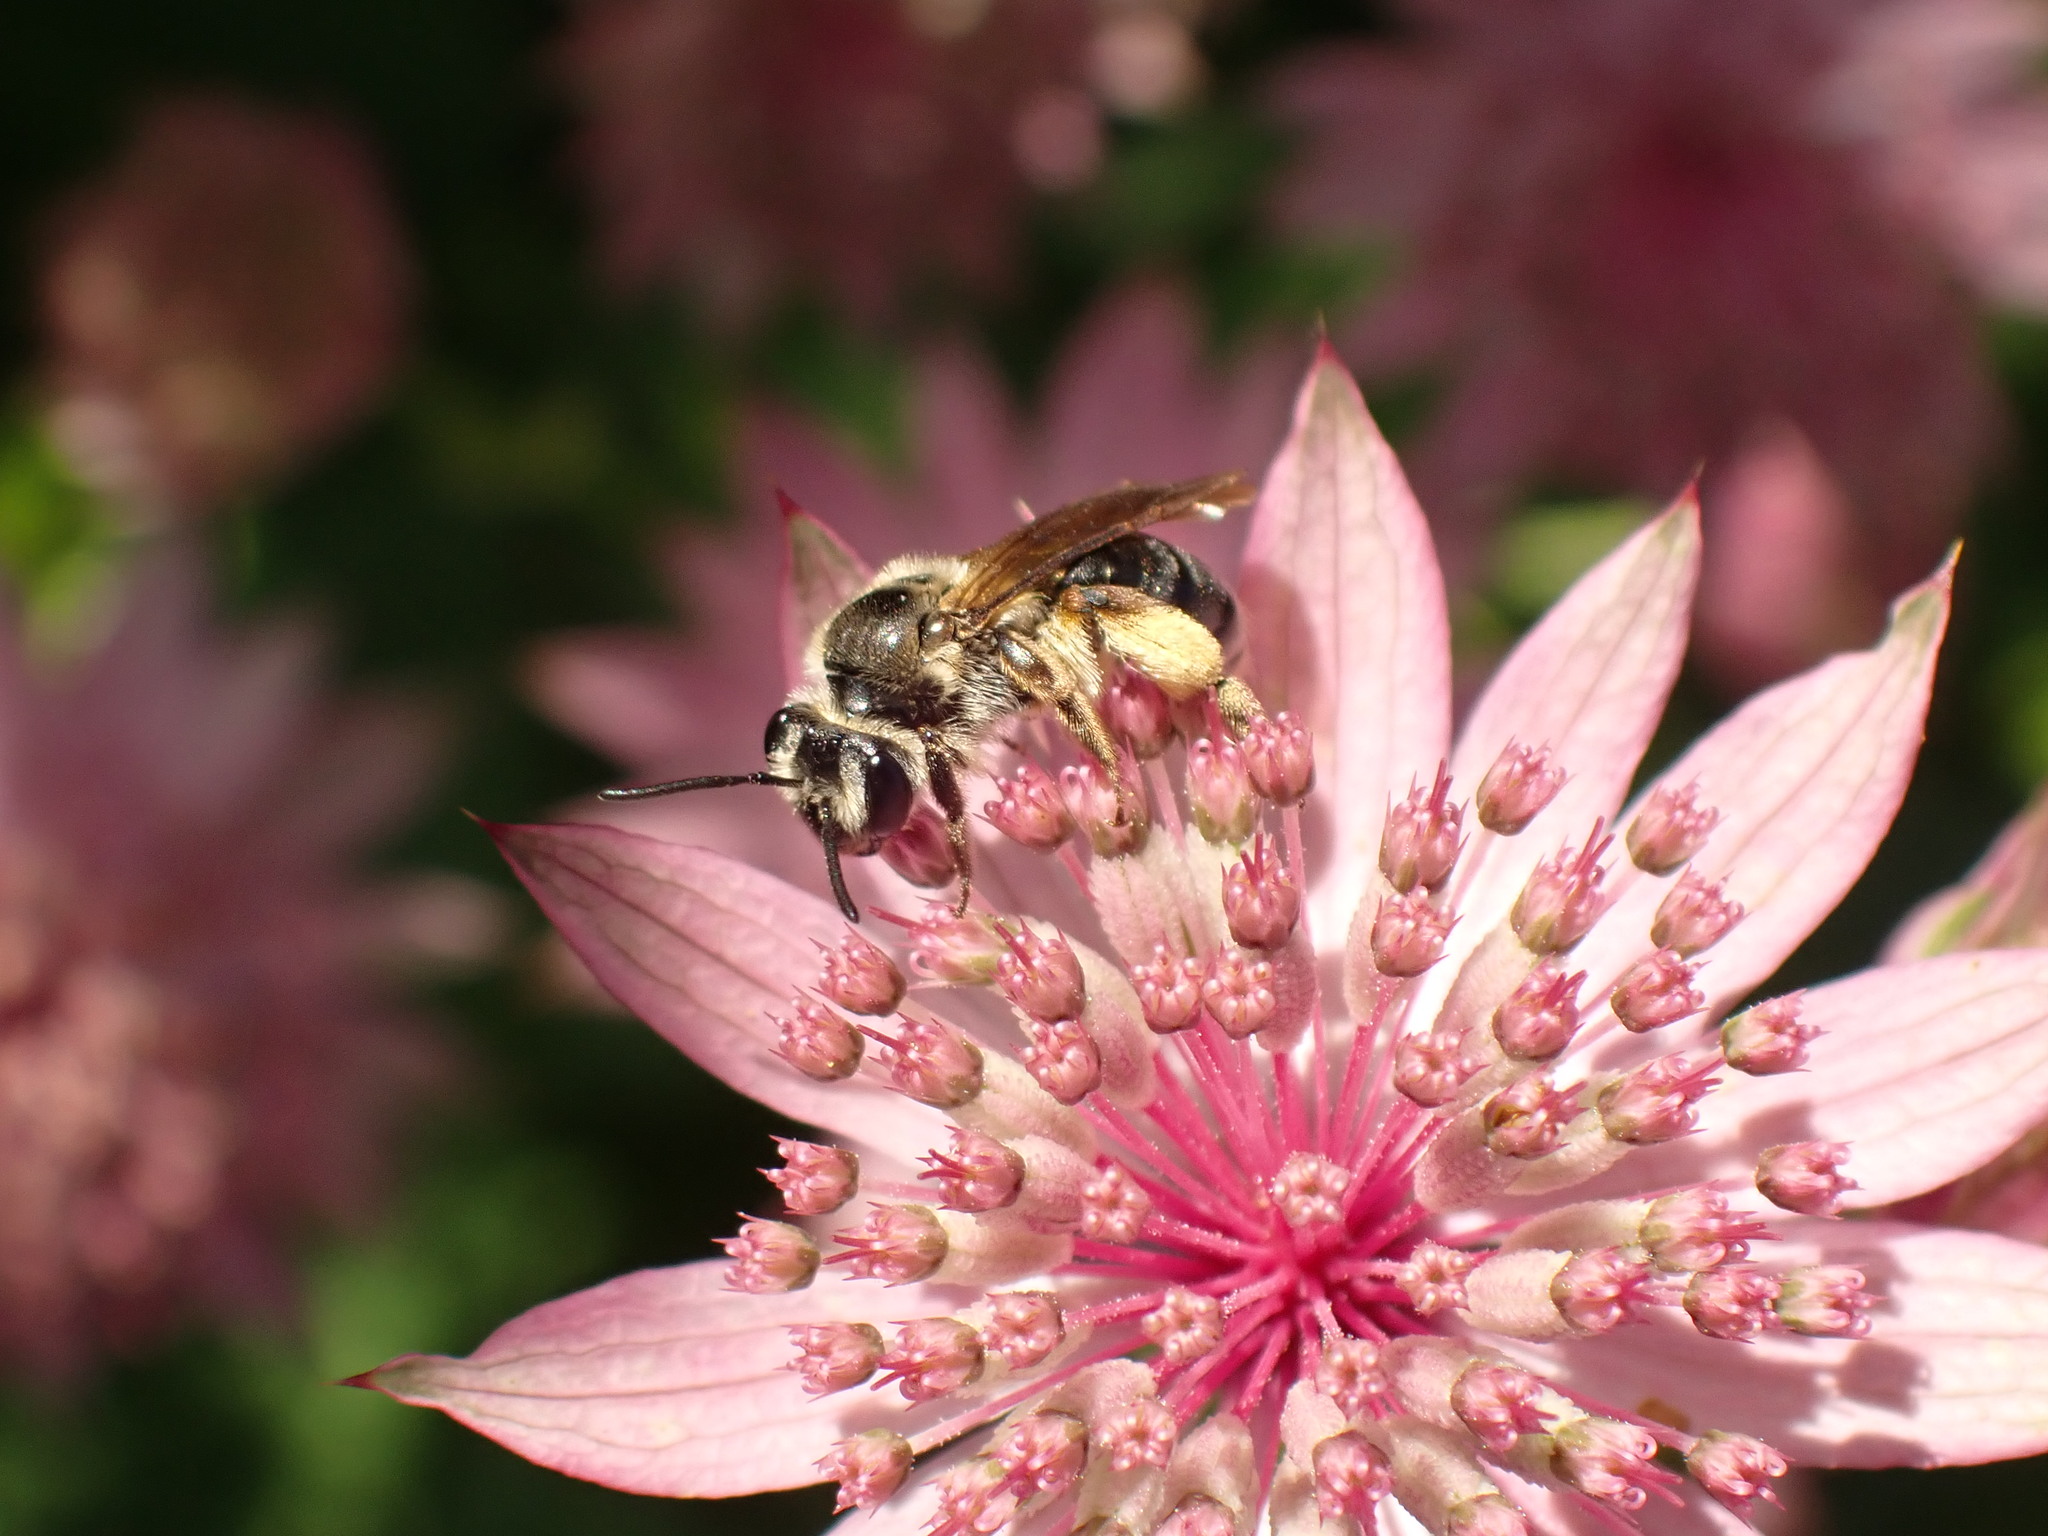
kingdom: Animalia
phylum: Arthropoda
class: Insecta
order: Hymenoptera
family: Andrenidae
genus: Andrena
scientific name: Andrena crataegi
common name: Hawthorn mining bee
